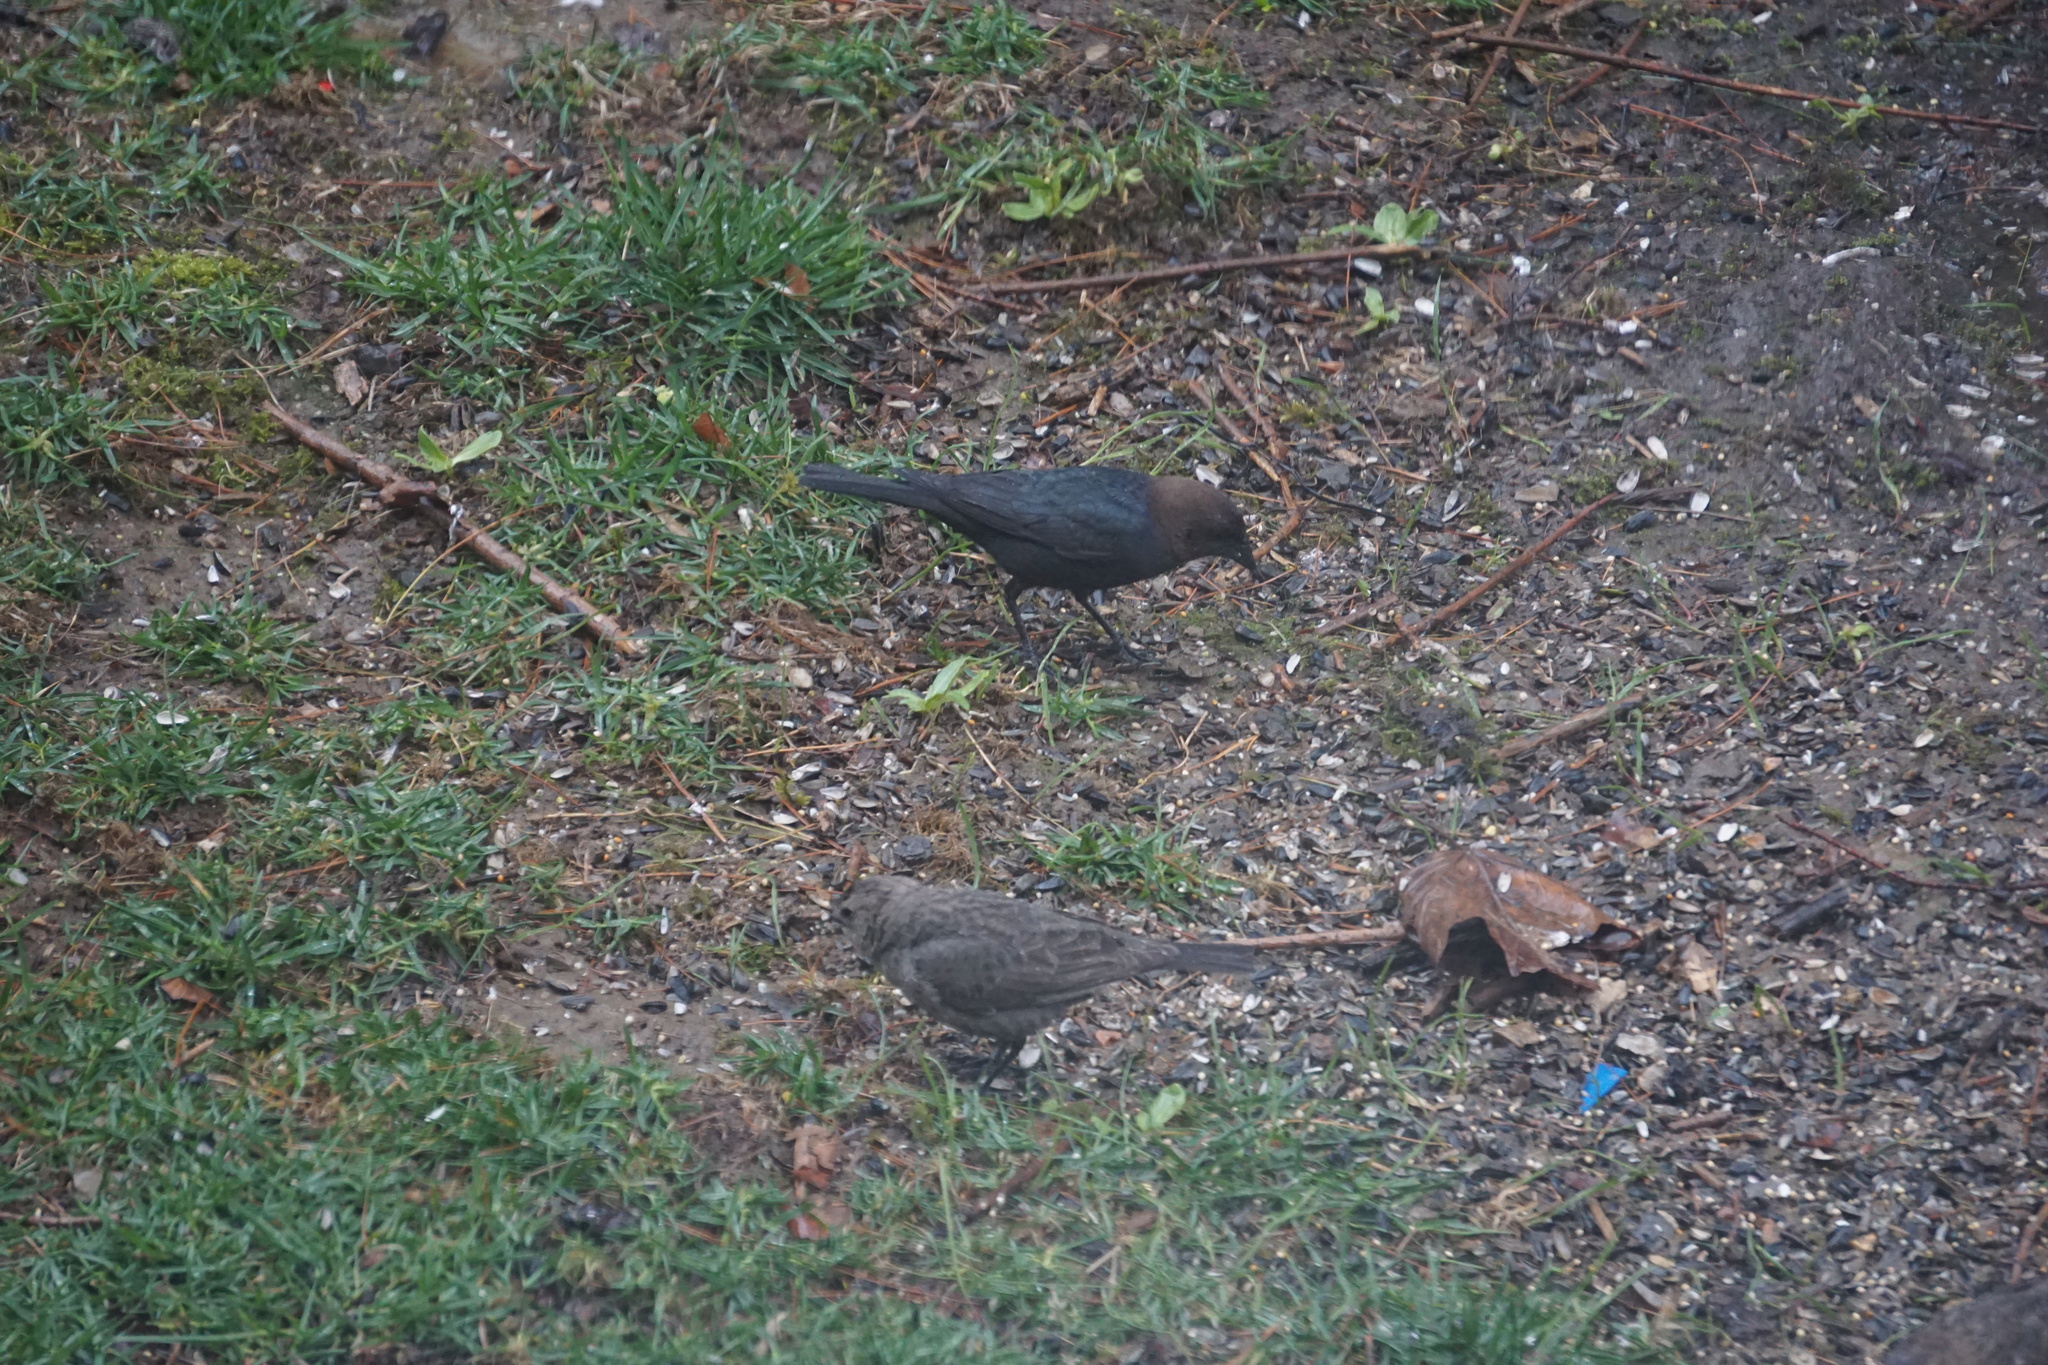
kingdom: Animalia
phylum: Chordata
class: Aves
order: Passeriformes
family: Icteridae
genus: Molothrus
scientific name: Molothrus ater
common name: Brown-headed cowbird
